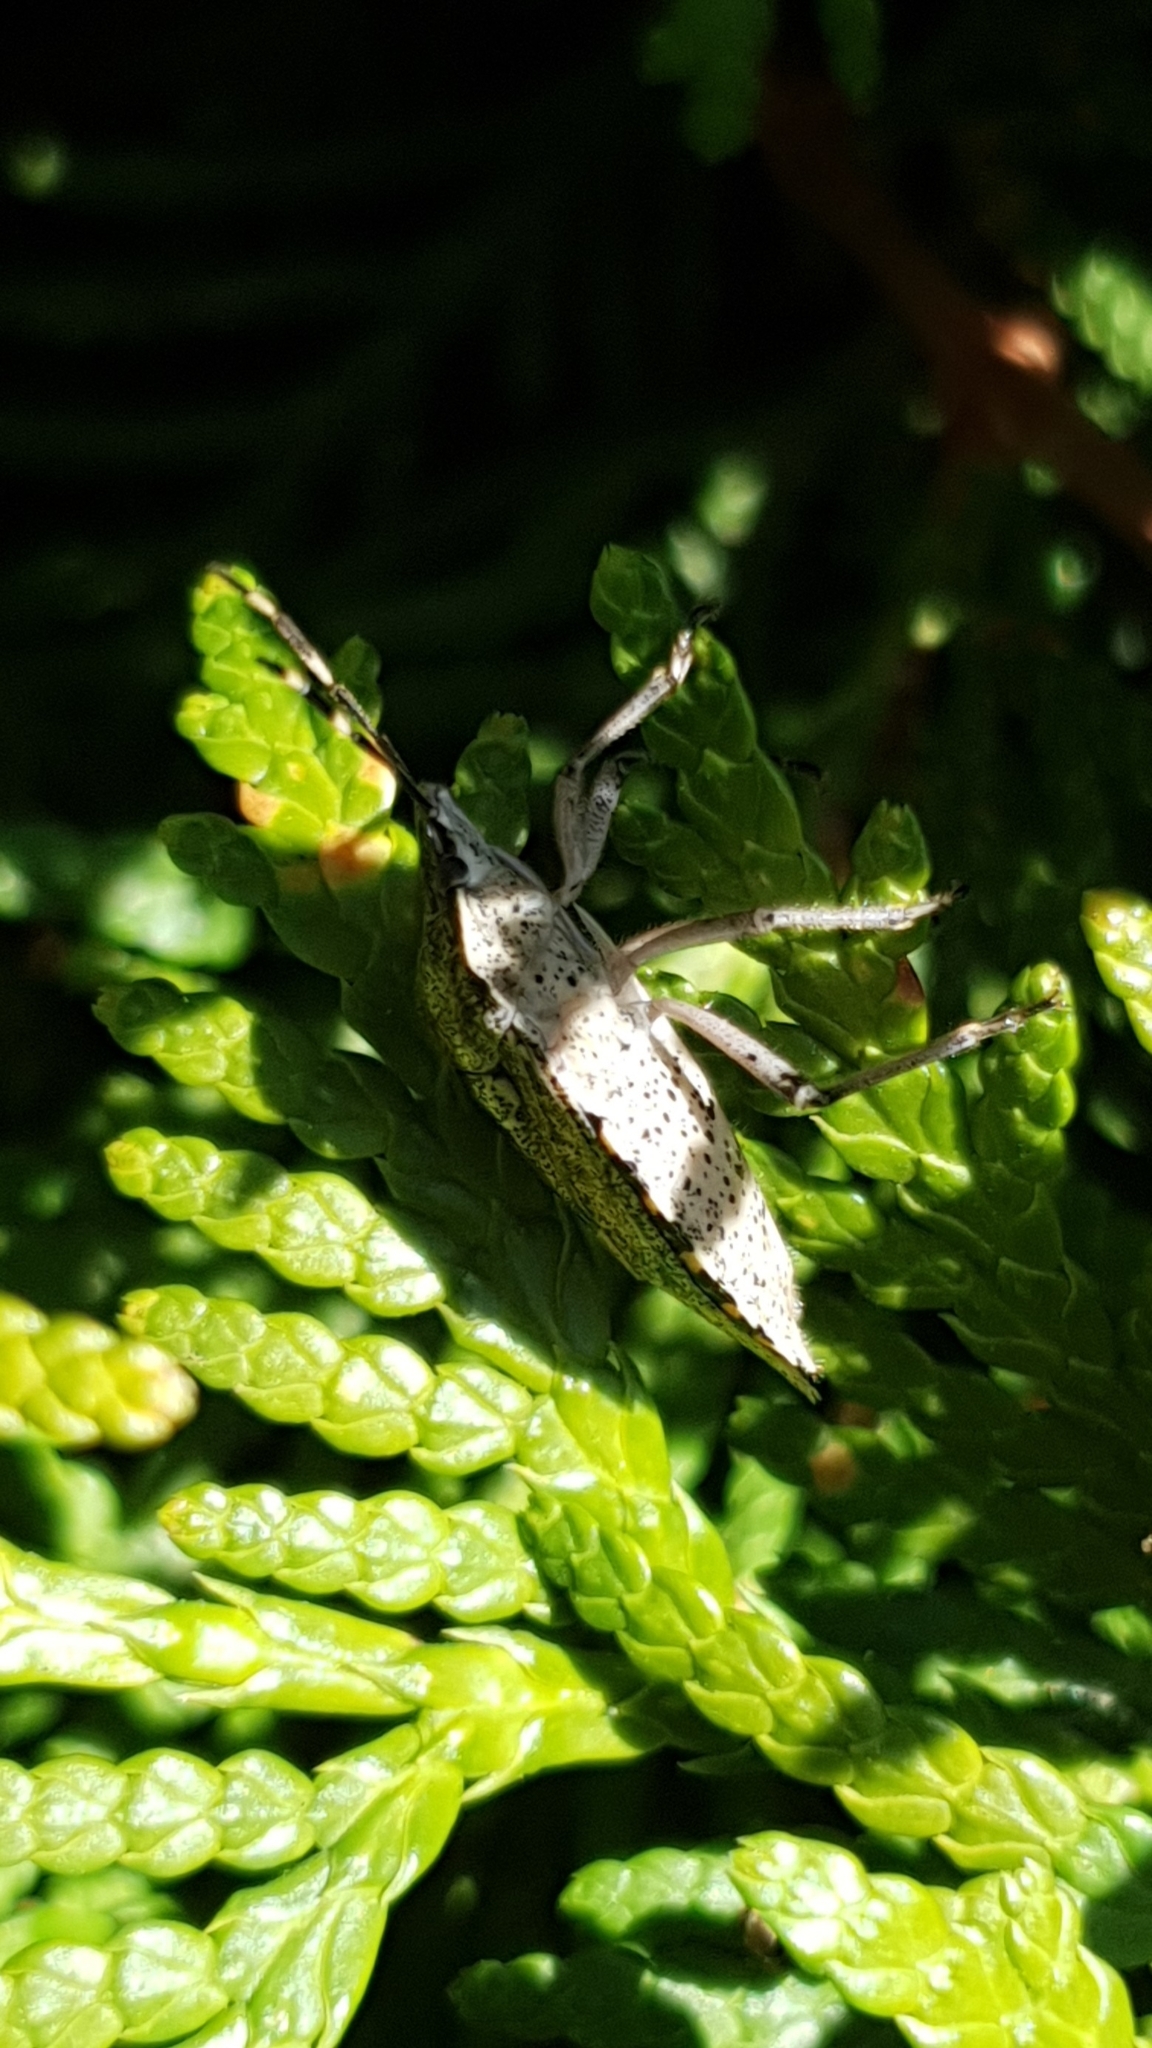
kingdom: Animalia
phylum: Arthropoda
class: Insecta
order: Hemiptera
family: Pentatomidae
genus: Rhaphigaster
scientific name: Rhaphigaster nebulosa
